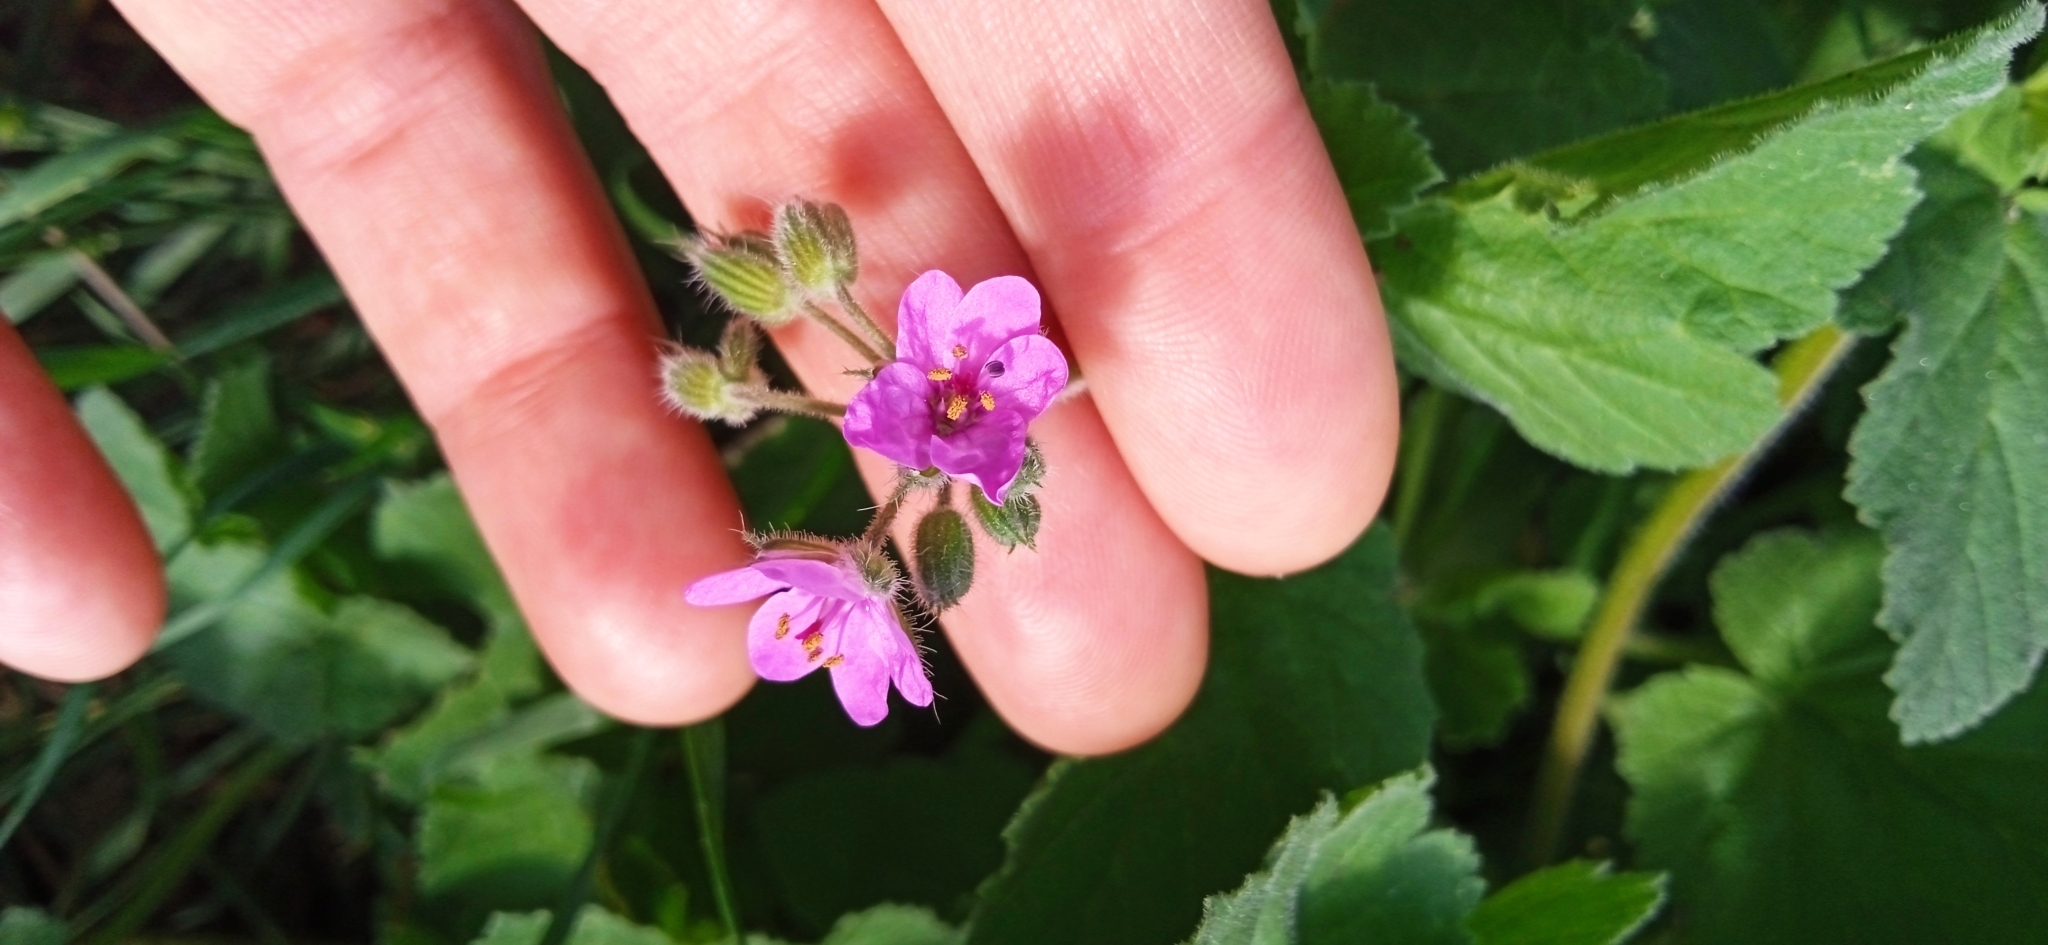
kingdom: Plantae
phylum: Tracheophyta
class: Magnoliopsida
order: Geraniales
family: Geraniaceae
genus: Erodium
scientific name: Erodium malacoides
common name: Soft stork's-bill
